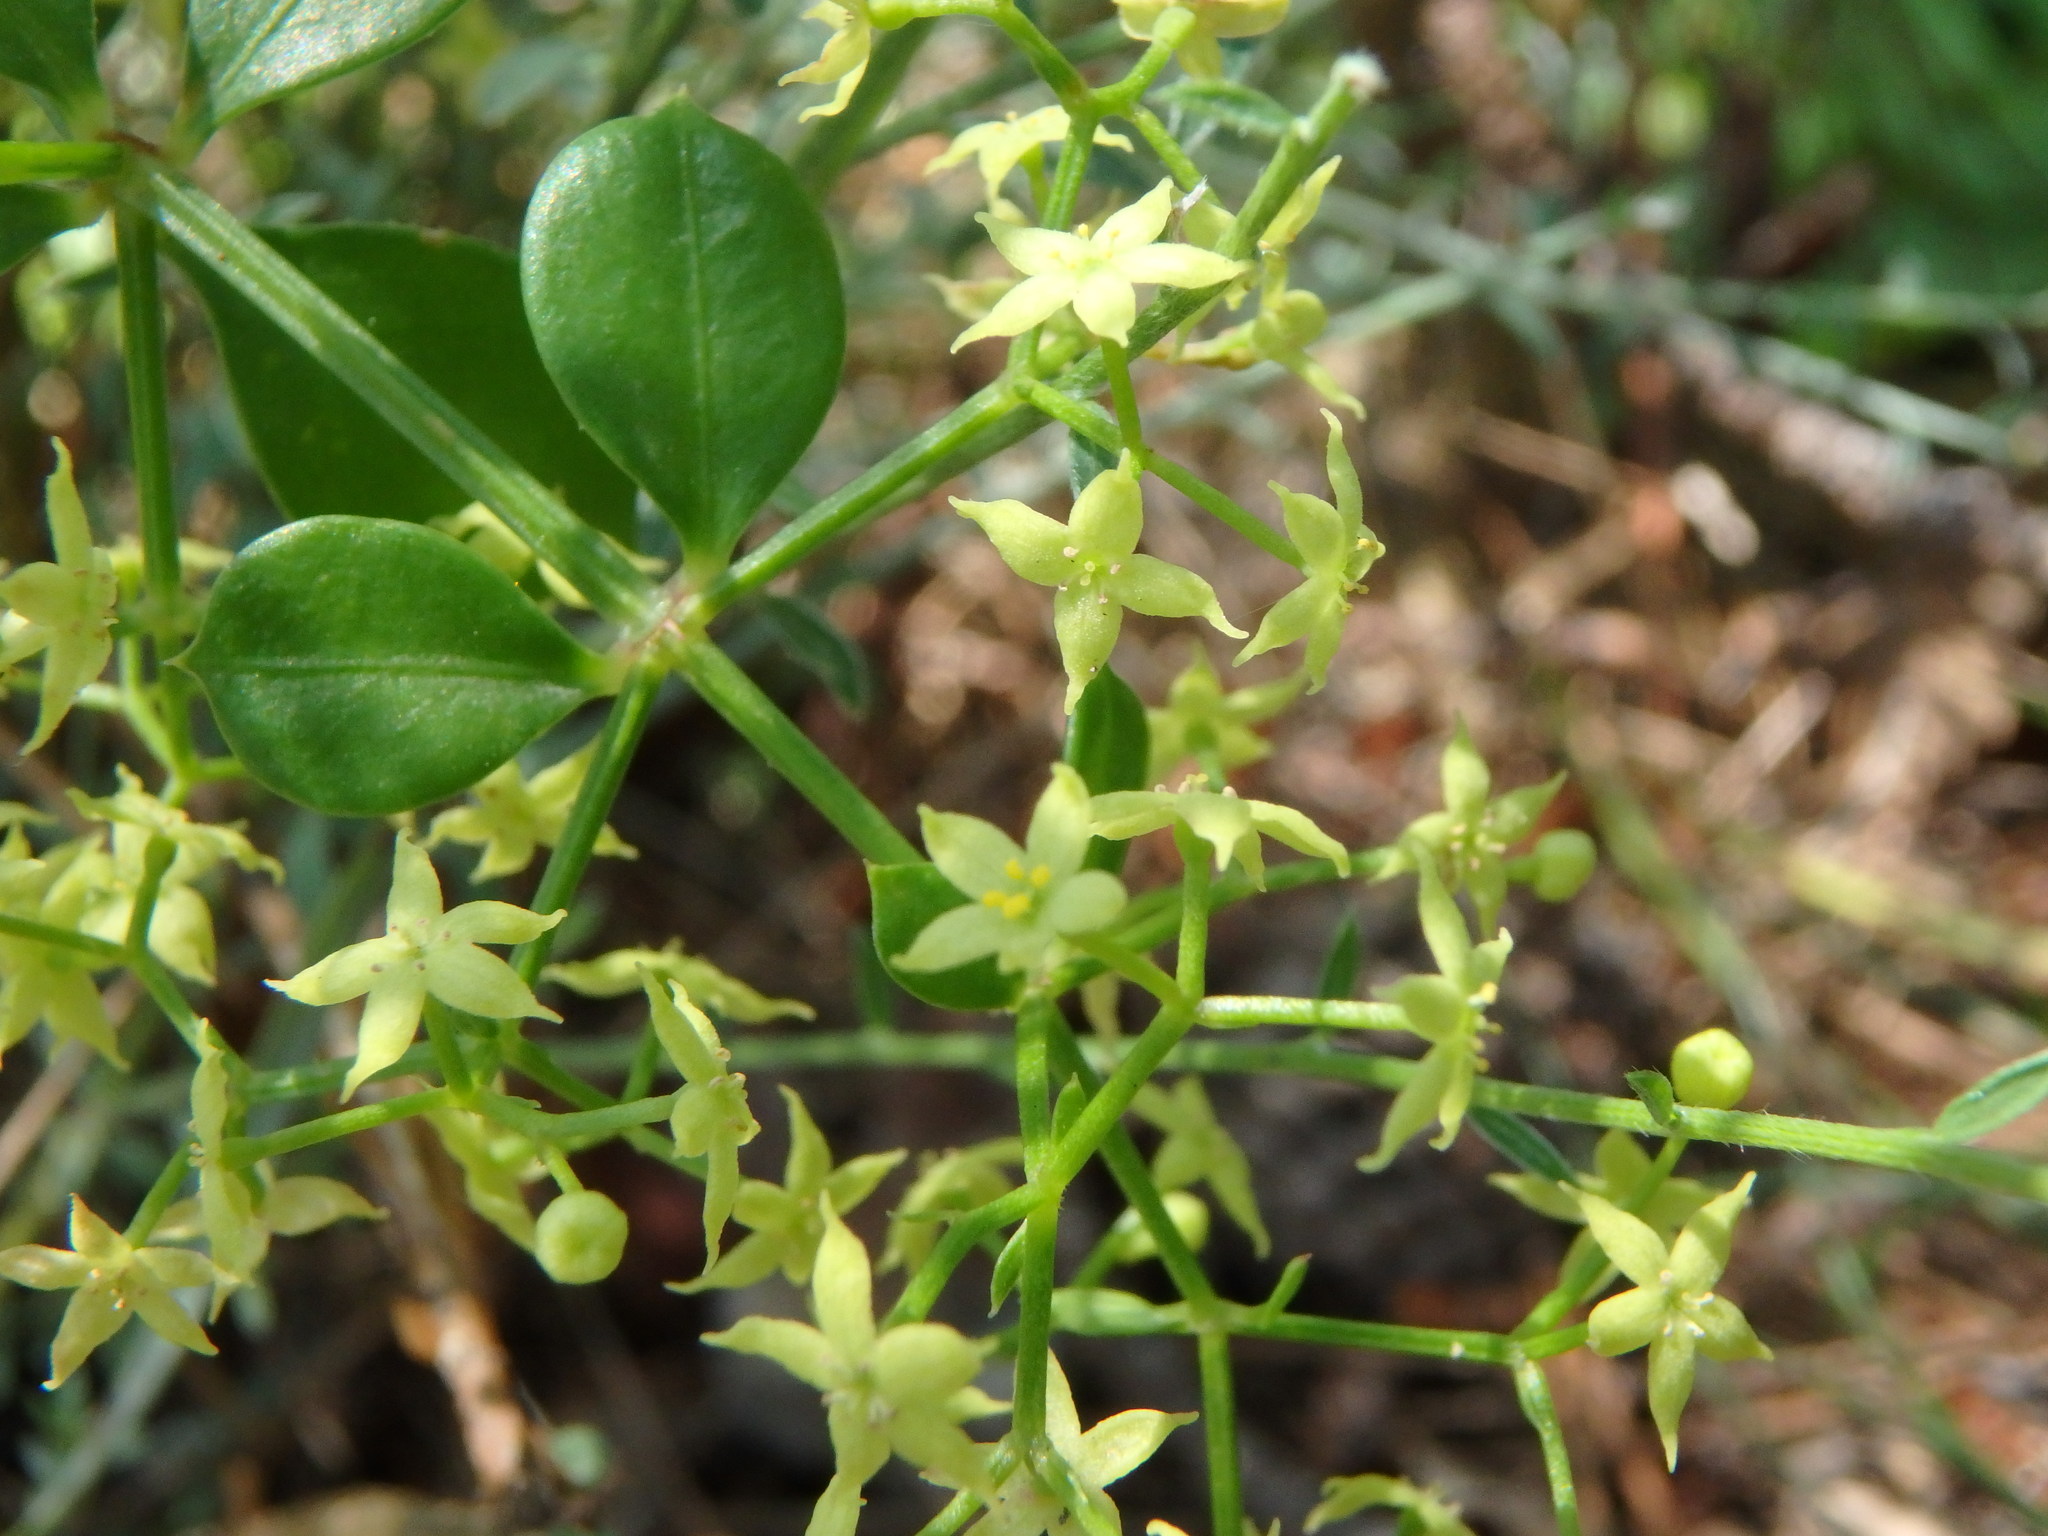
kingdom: Plantae
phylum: Tracheophyta
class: Magnoliopsida
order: Gentianales
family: Rubiaceae
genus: Rubia
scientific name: Rubia peregrina
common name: Wild madder
